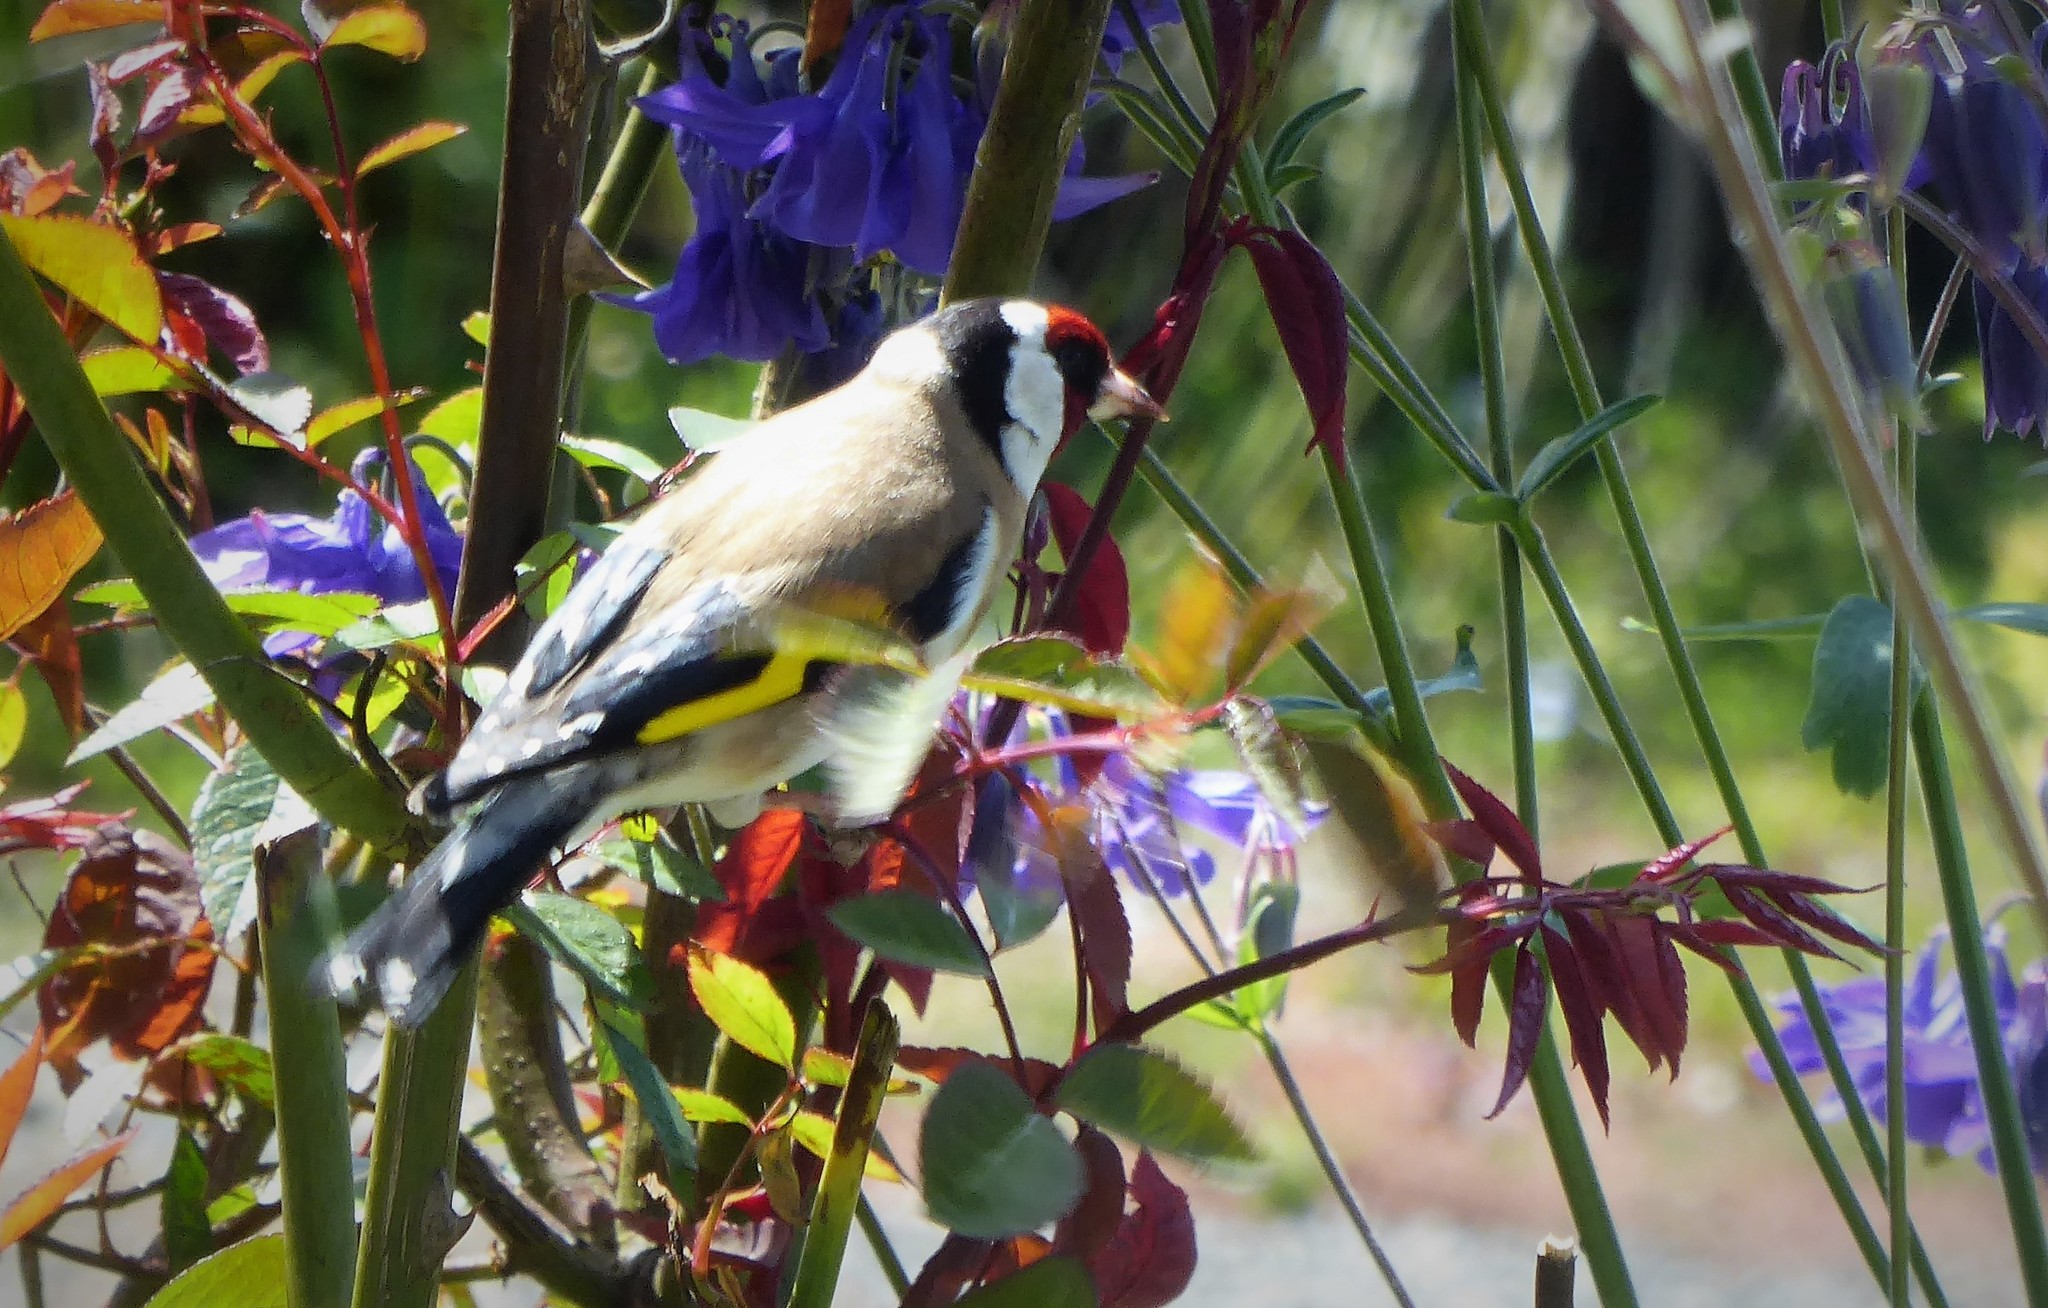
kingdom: Animalia
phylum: Chordata
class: Aves
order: Passeriformes
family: Fringillidae
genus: Carduelis
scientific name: Carduelis carduelis
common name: European goldfinch
